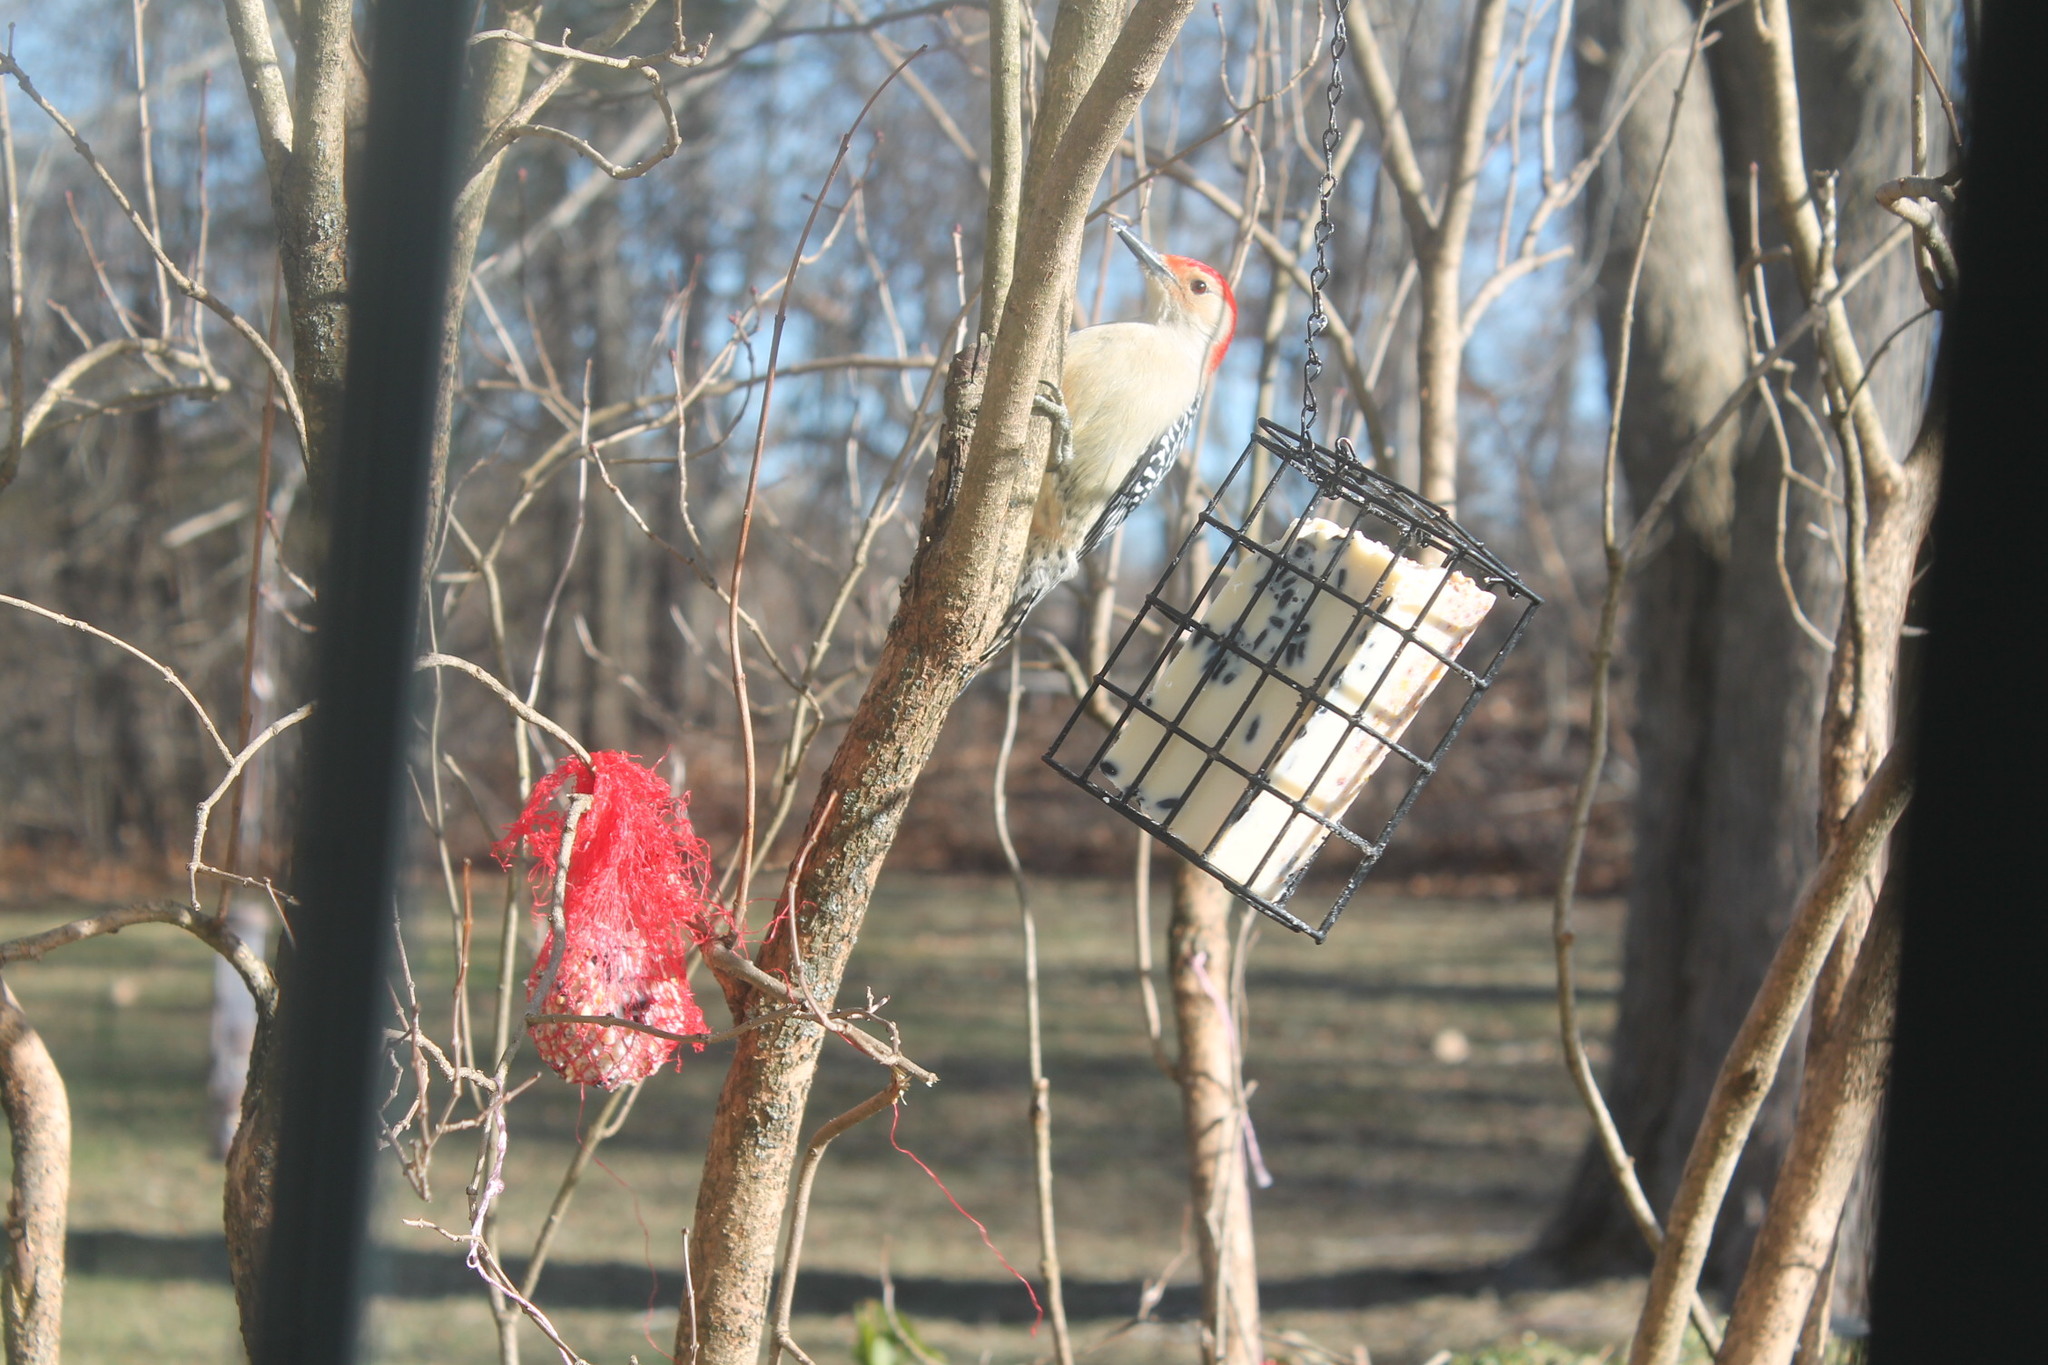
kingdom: Animalia
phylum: Chordata
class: Aves
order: Piciformes
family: Picidae
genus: Melanerpes
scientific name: Melanerpes carolinus
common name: Red-bellied woodpecker
